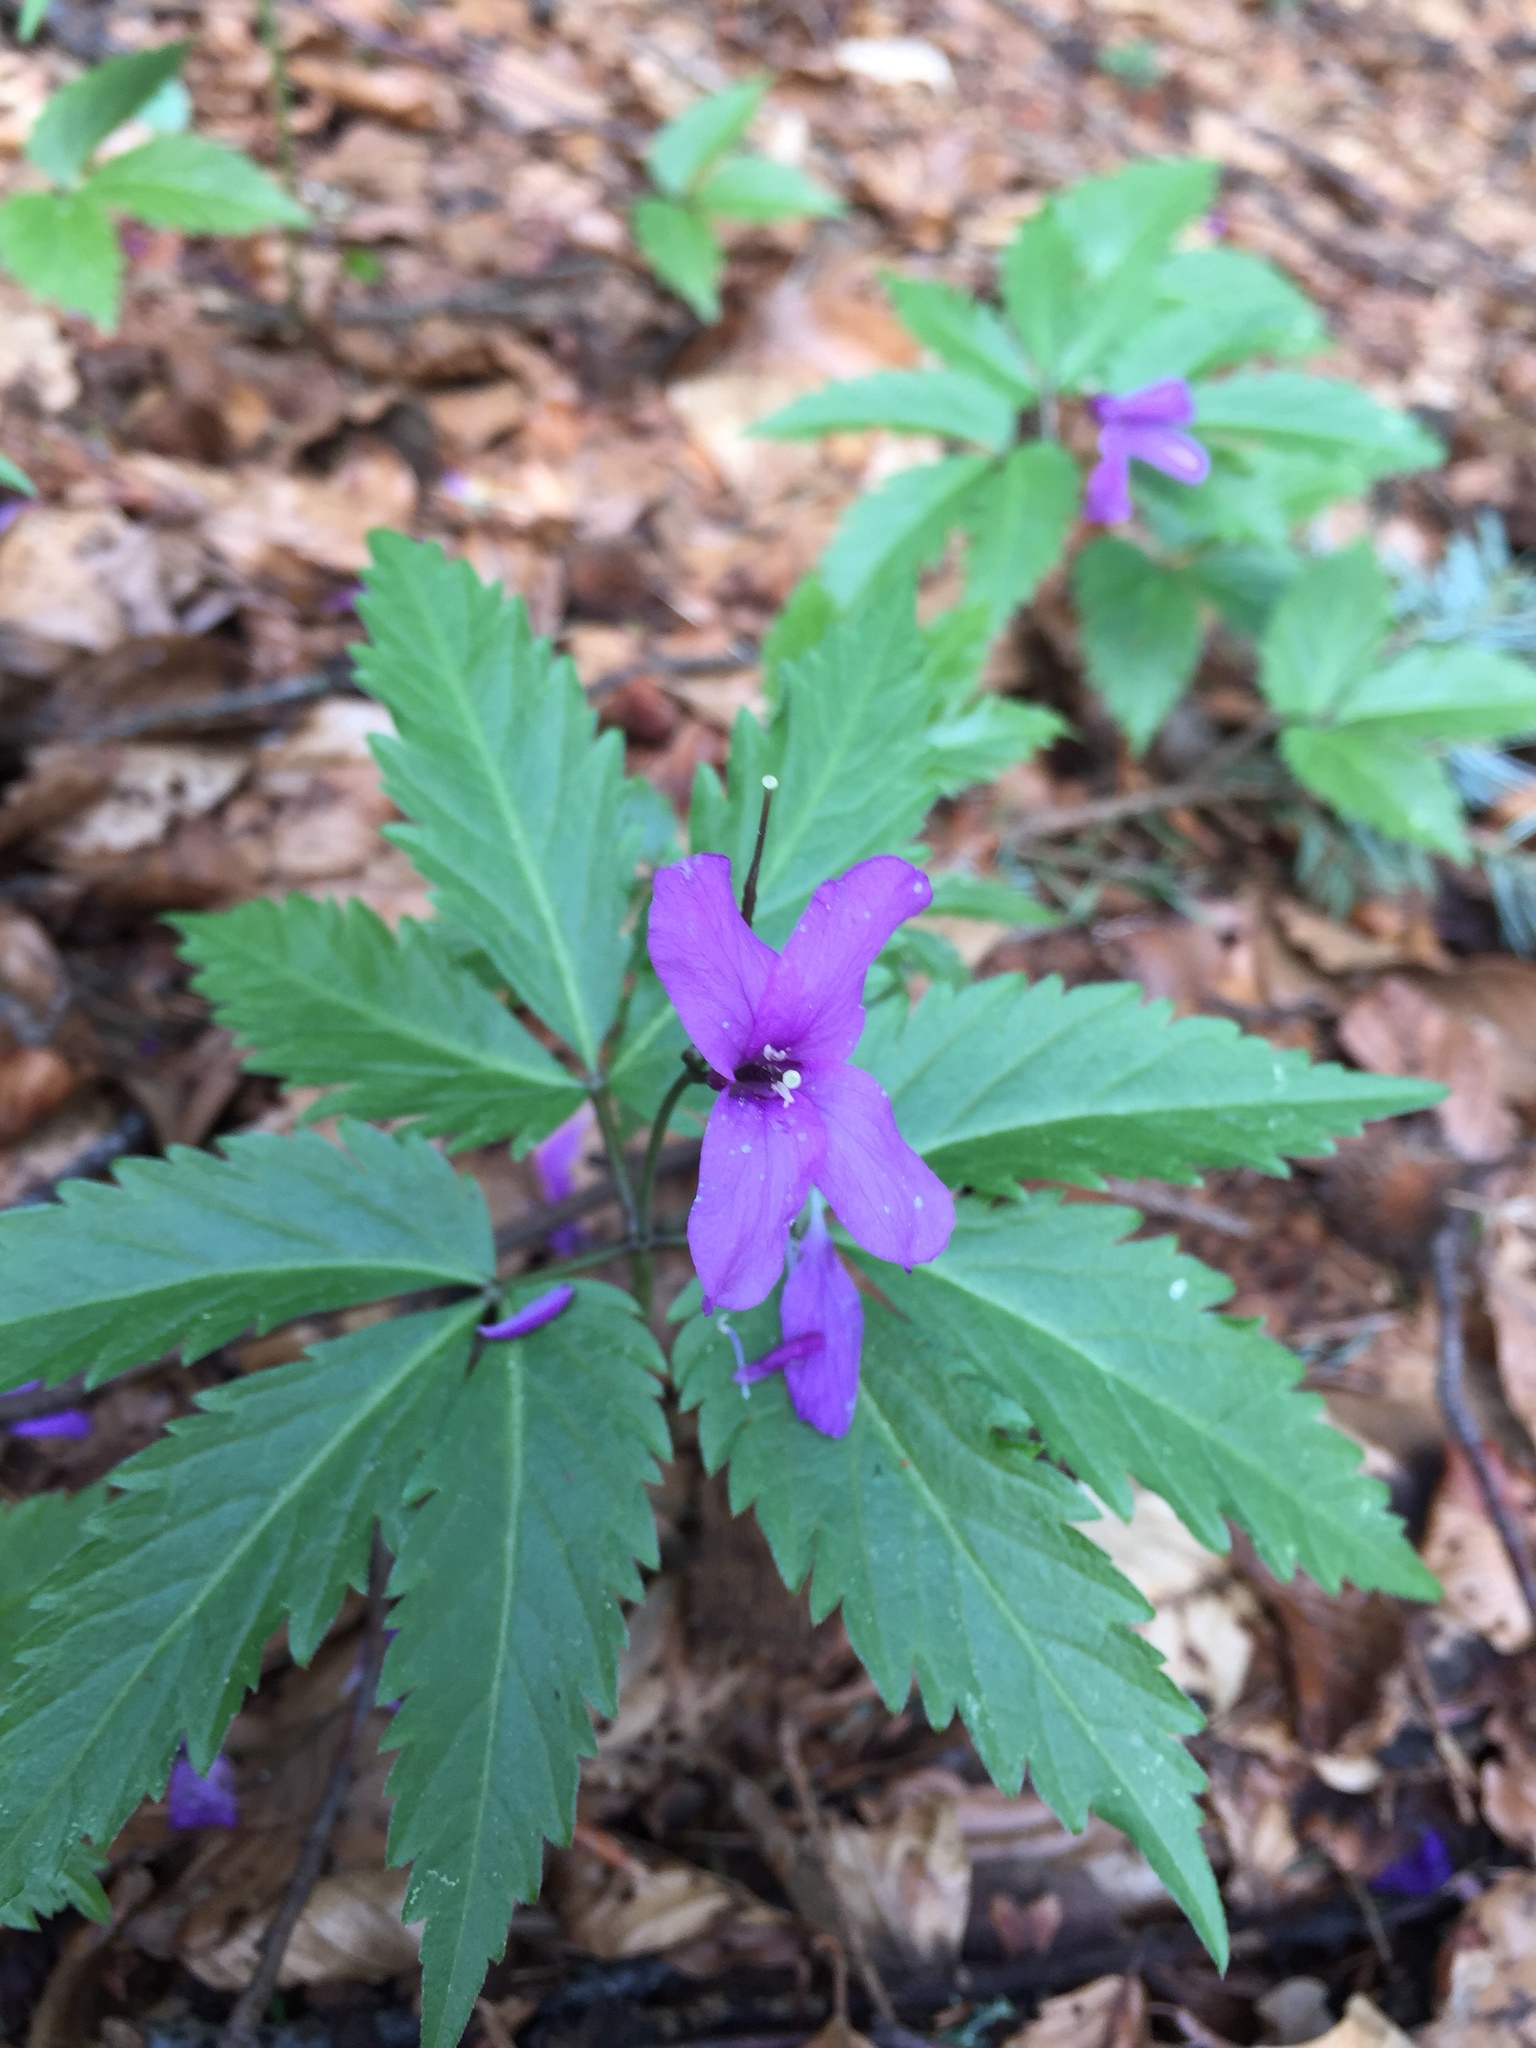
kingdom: Plantae
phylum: Tracheophyta
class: Magnoliopsida
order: Brassicales
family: Brassicaceae
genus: Cardamine
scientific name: Cardamine glanduligera
